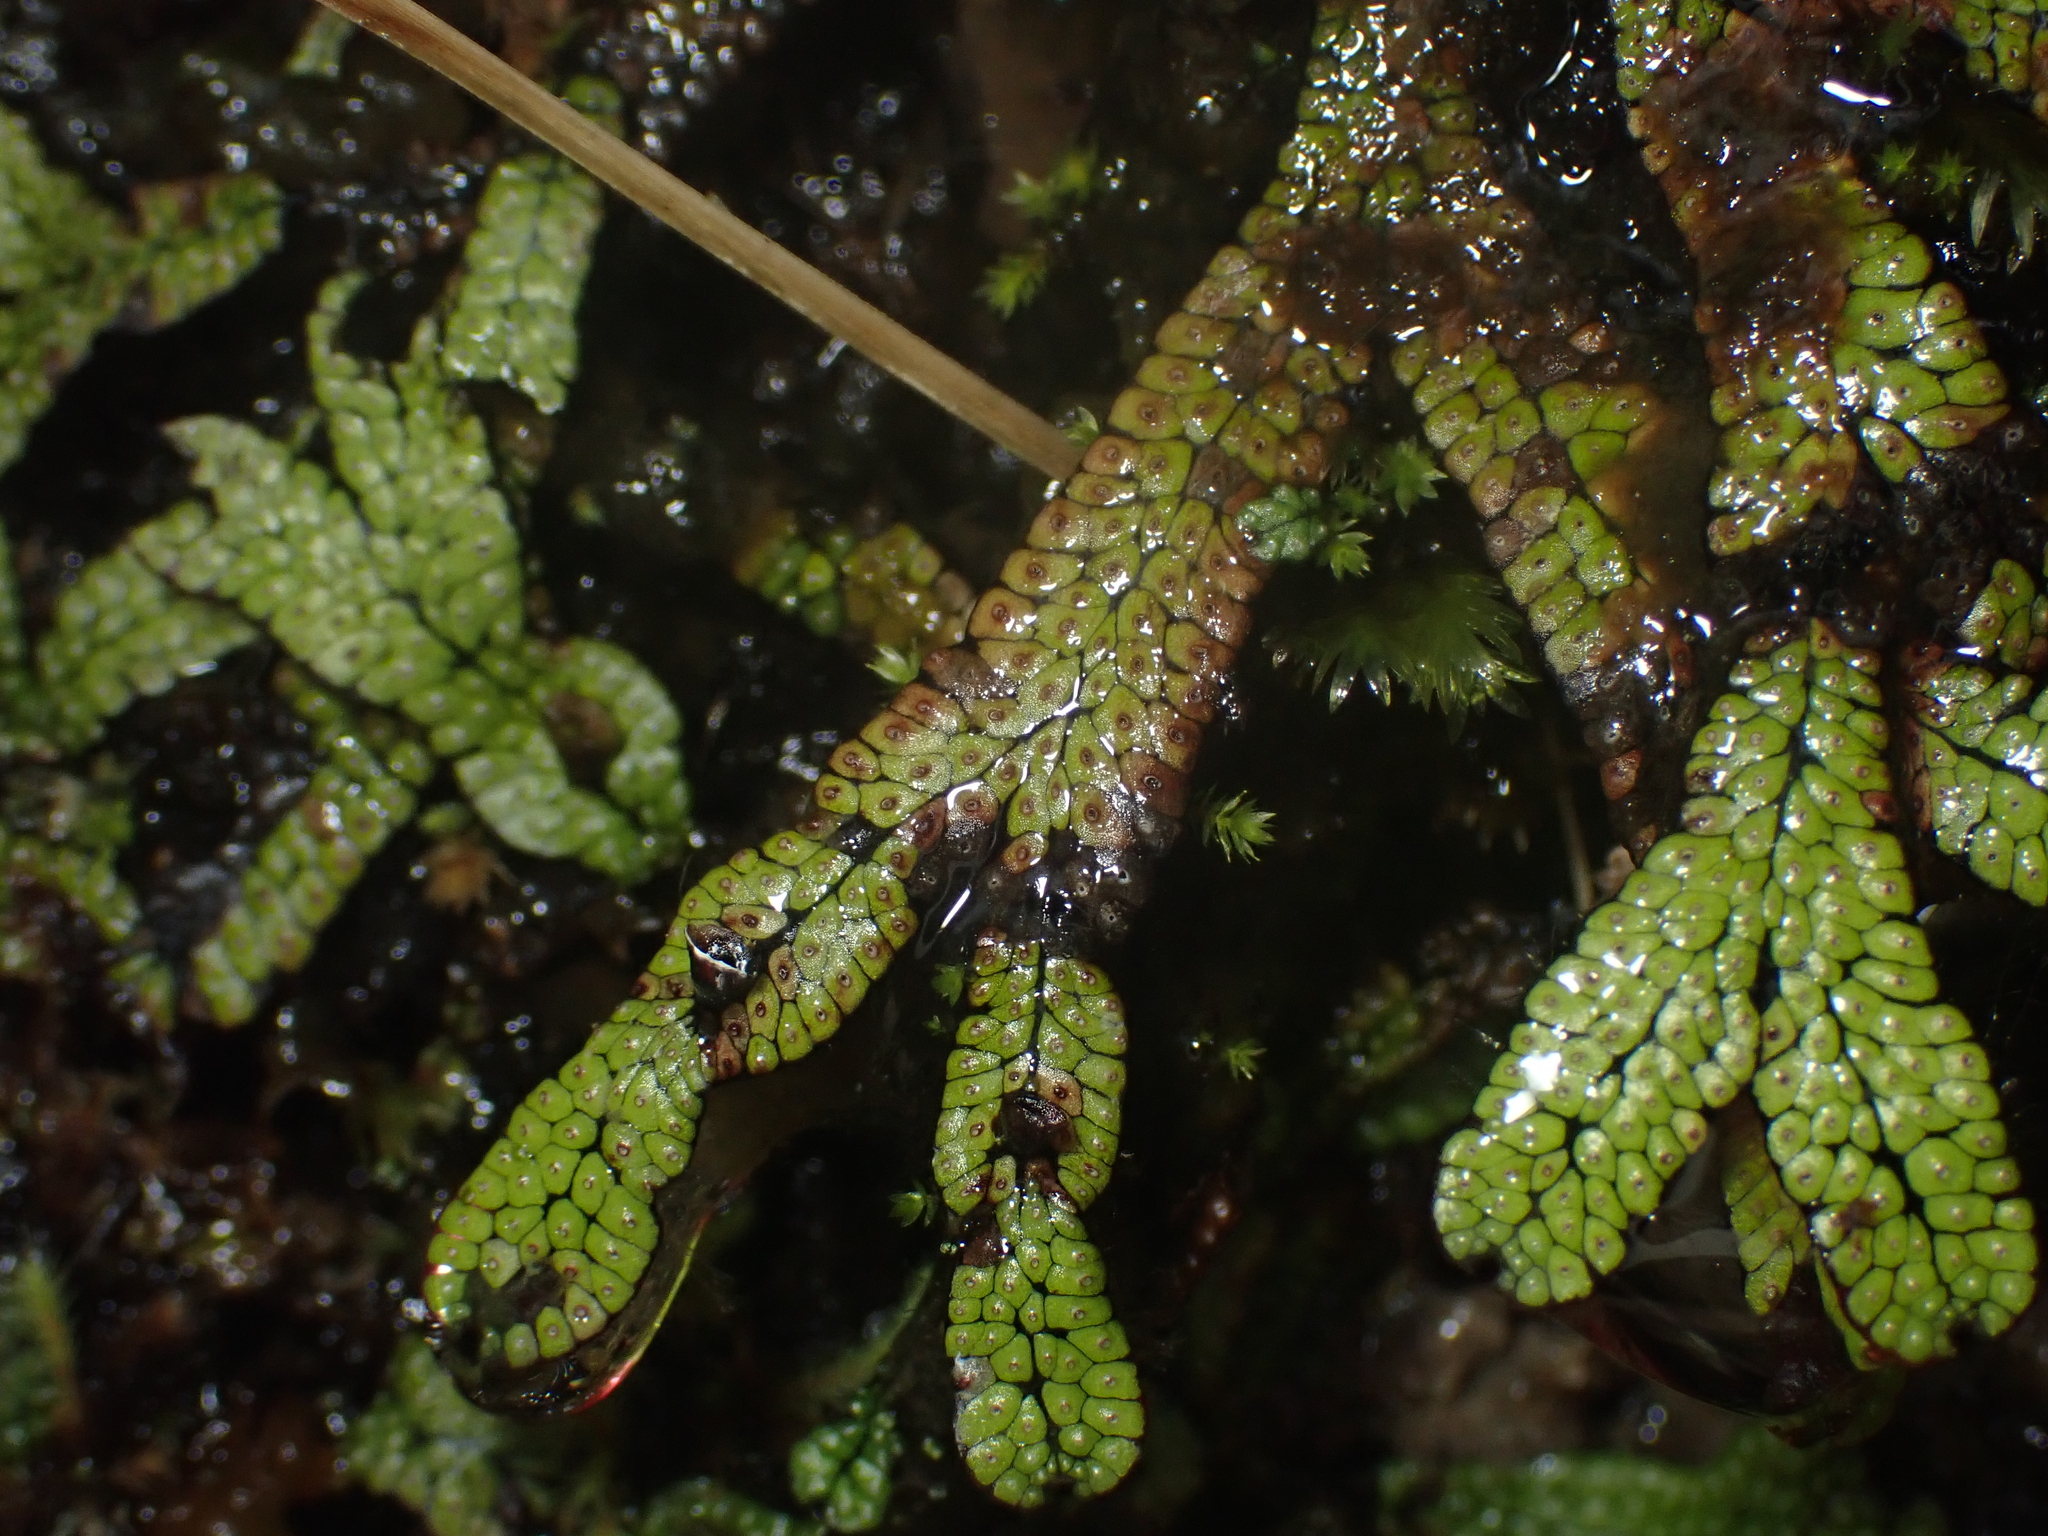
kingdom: Plantae
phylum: Marchantiophyta
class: Marchantiopsida
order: Marchantiales
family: Marchantiaceae
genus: Marchantia
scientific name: Marchantia macropora
